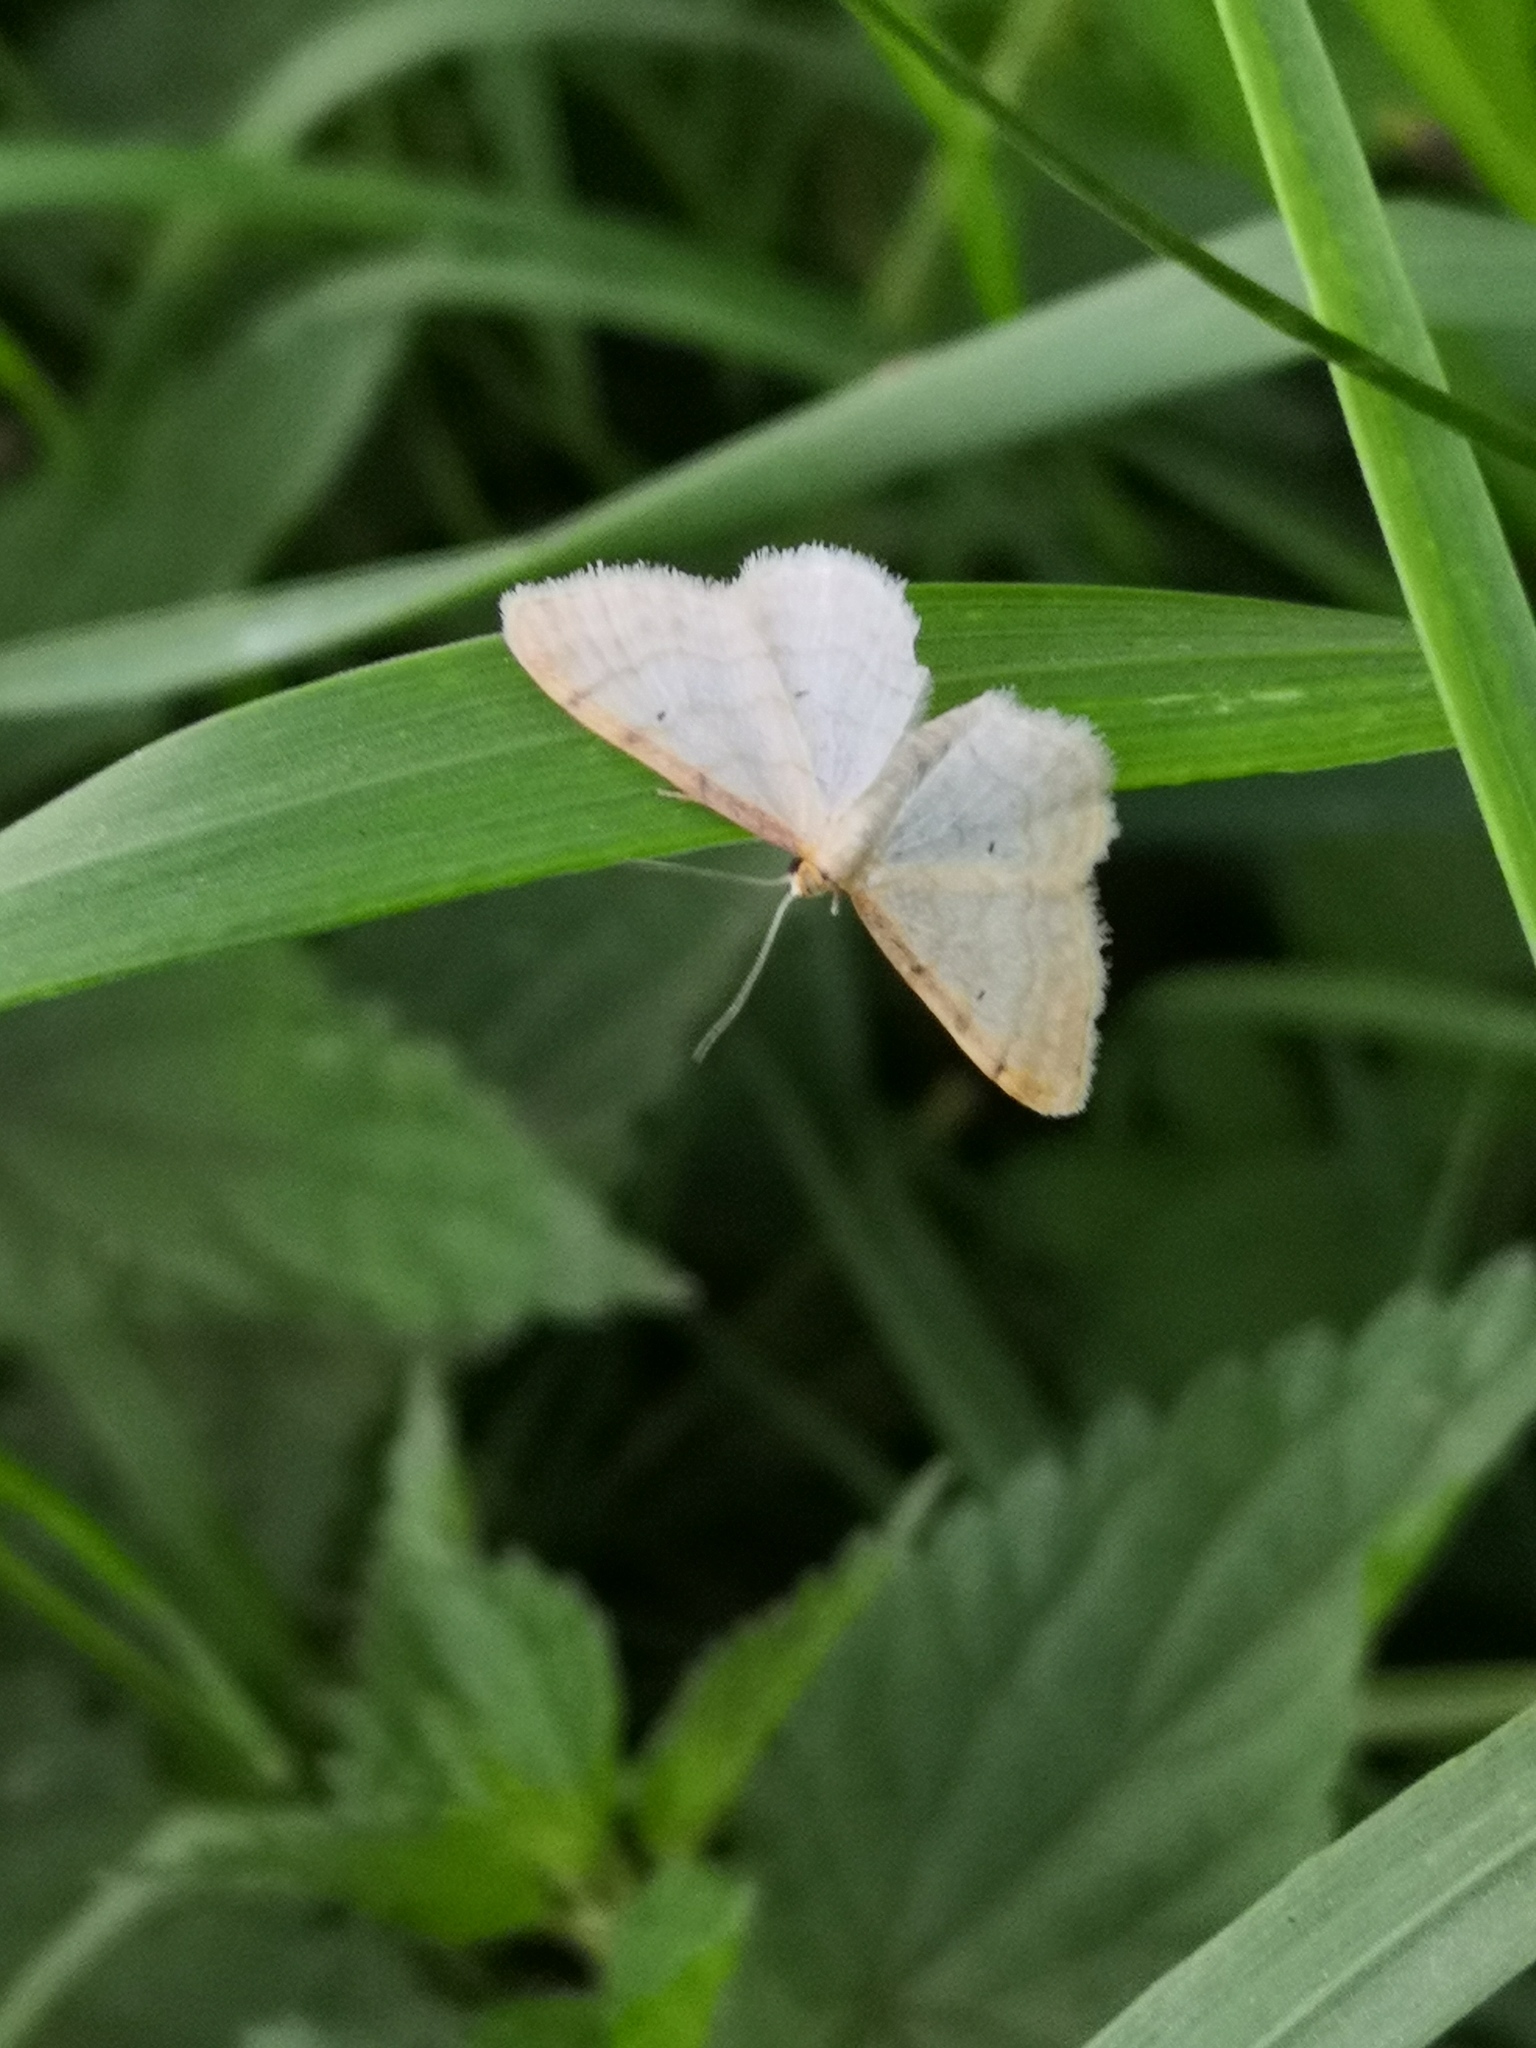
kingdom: Animalia
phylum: Arthropoda
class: Insecta
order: Lepidoptera
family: Geometridae
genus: Idaea
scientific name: Idaea fuscovenosa
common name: Dwarf cream wave
